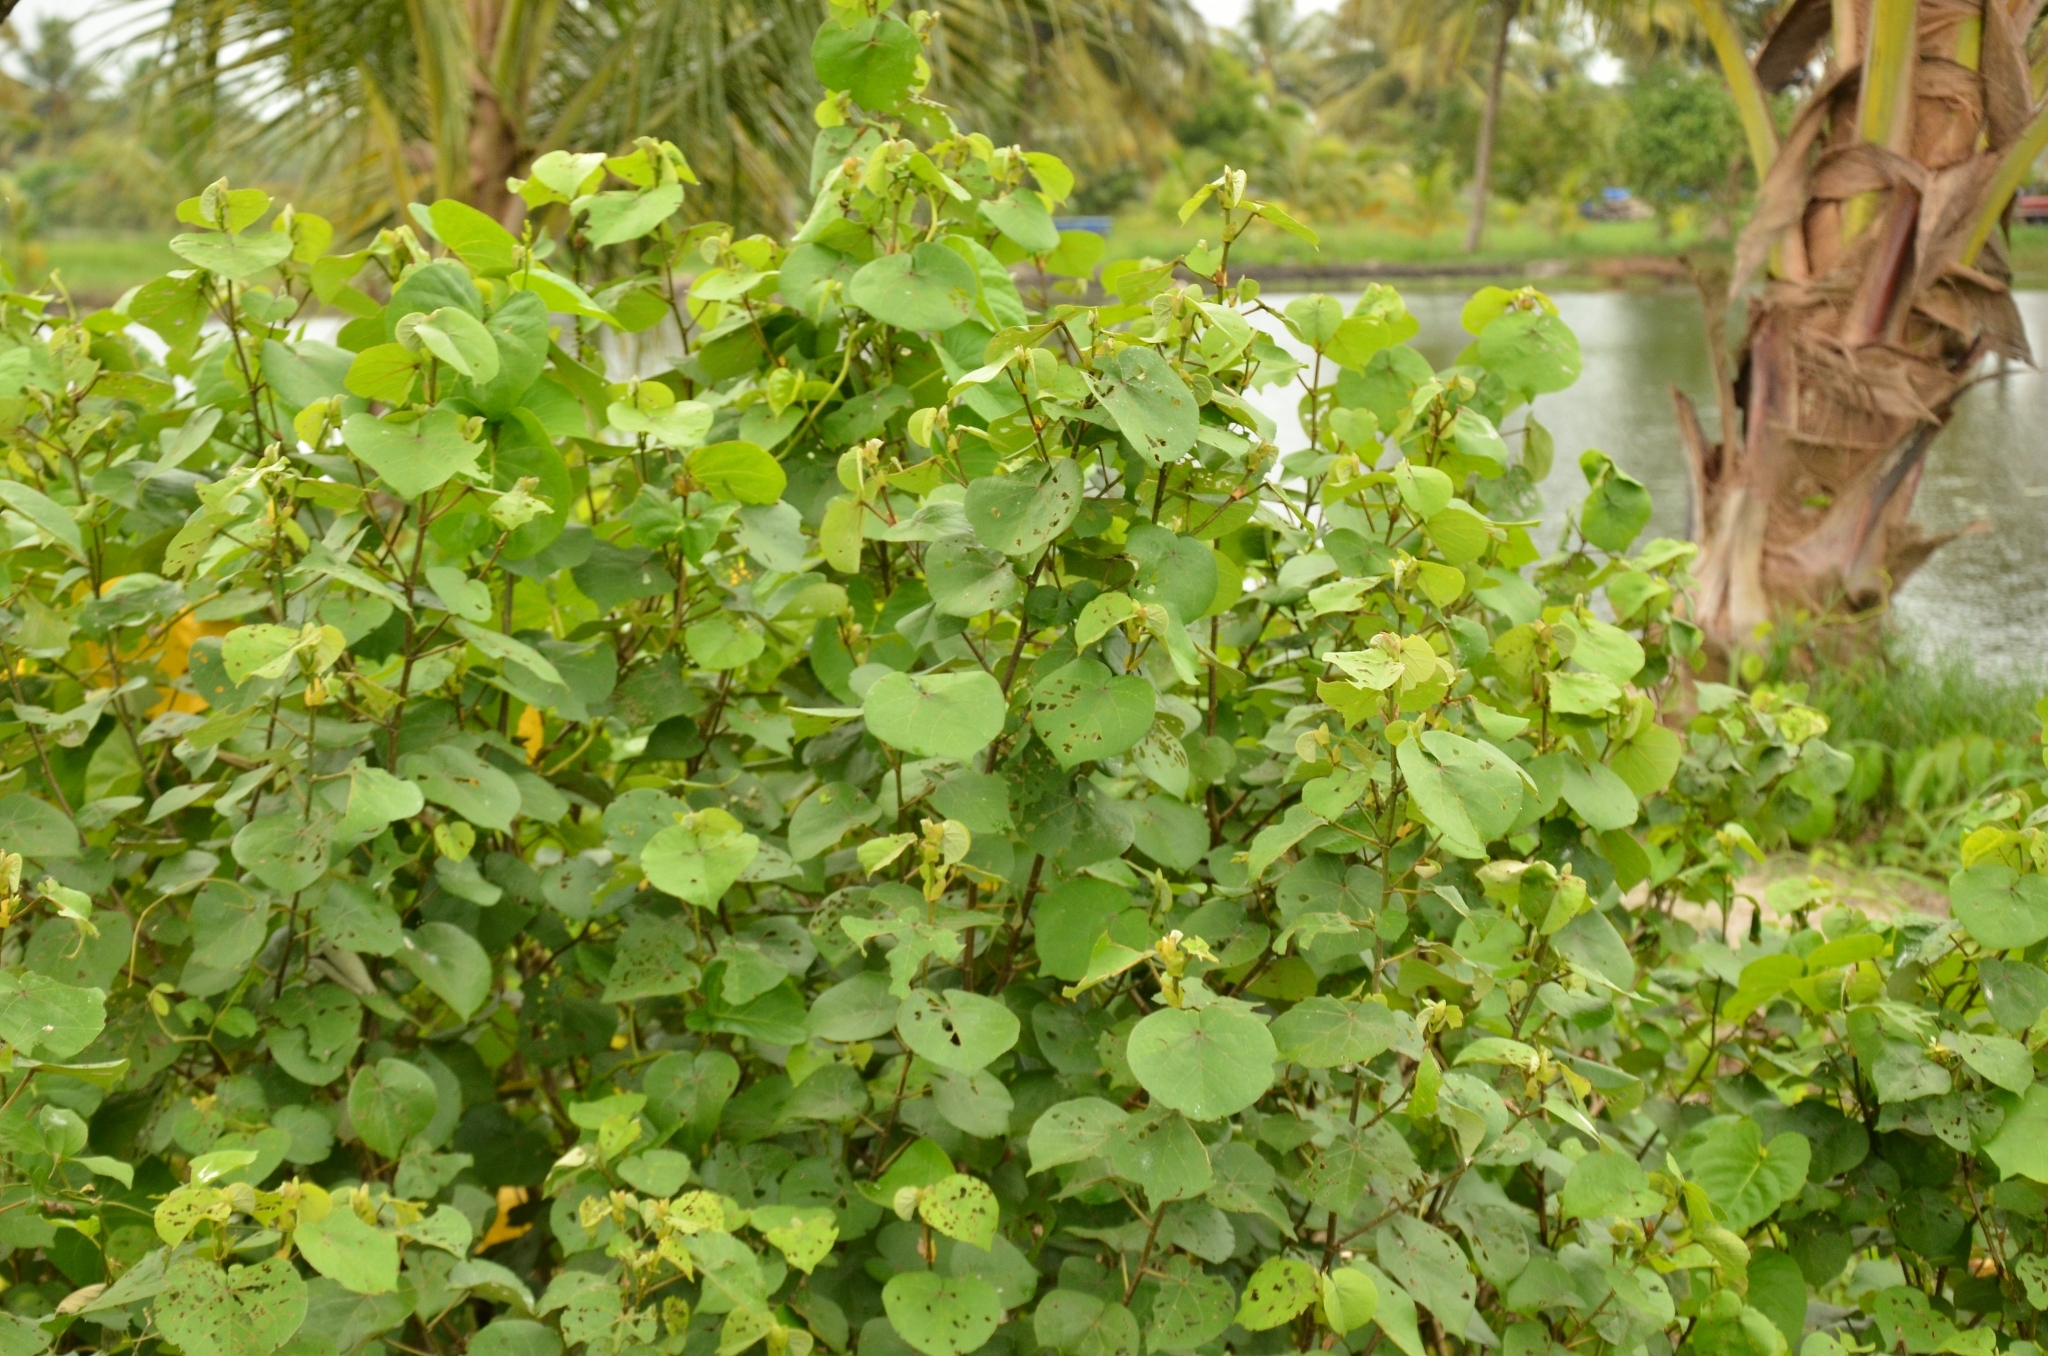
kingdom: Plantae
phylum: Tracheophyta
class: Magnoliopsida
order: Malvales
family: Malvaceae
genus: Talipariti
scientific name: Talipariti tiliaceum
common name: Sea hibiscus
